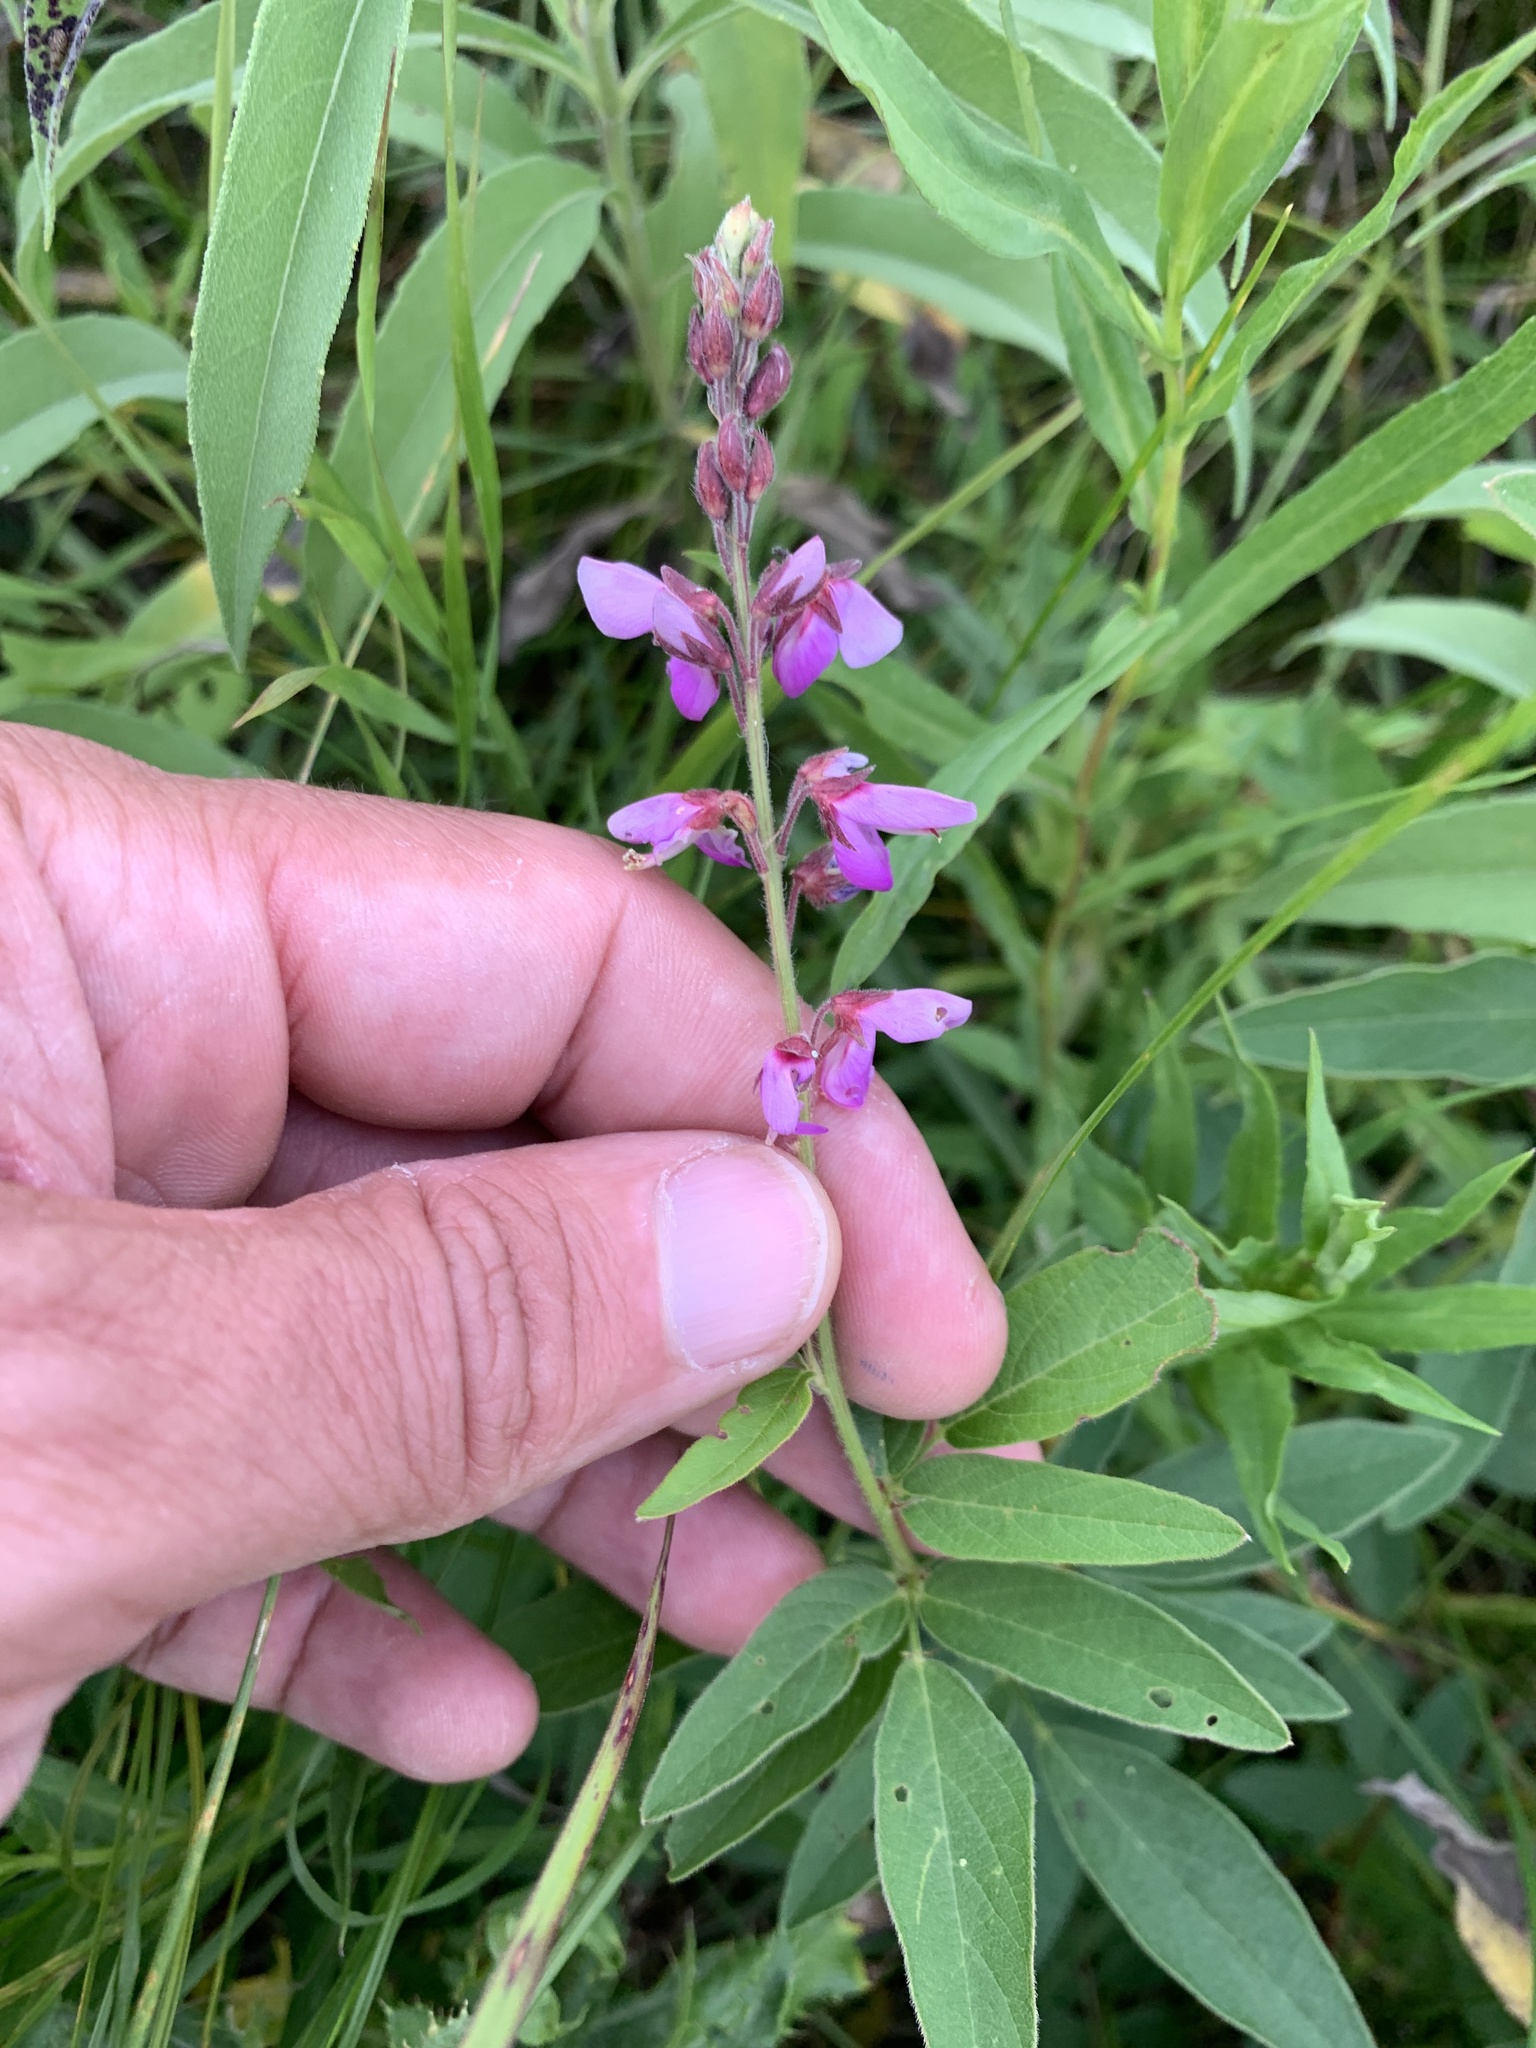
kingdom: Plantae
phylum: Tracheophyta
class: Magnoliopsida
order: Fabales
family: Fabaceae
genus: Desmodium
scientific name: Desmodium canadense
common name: Canada tick-trefoil
